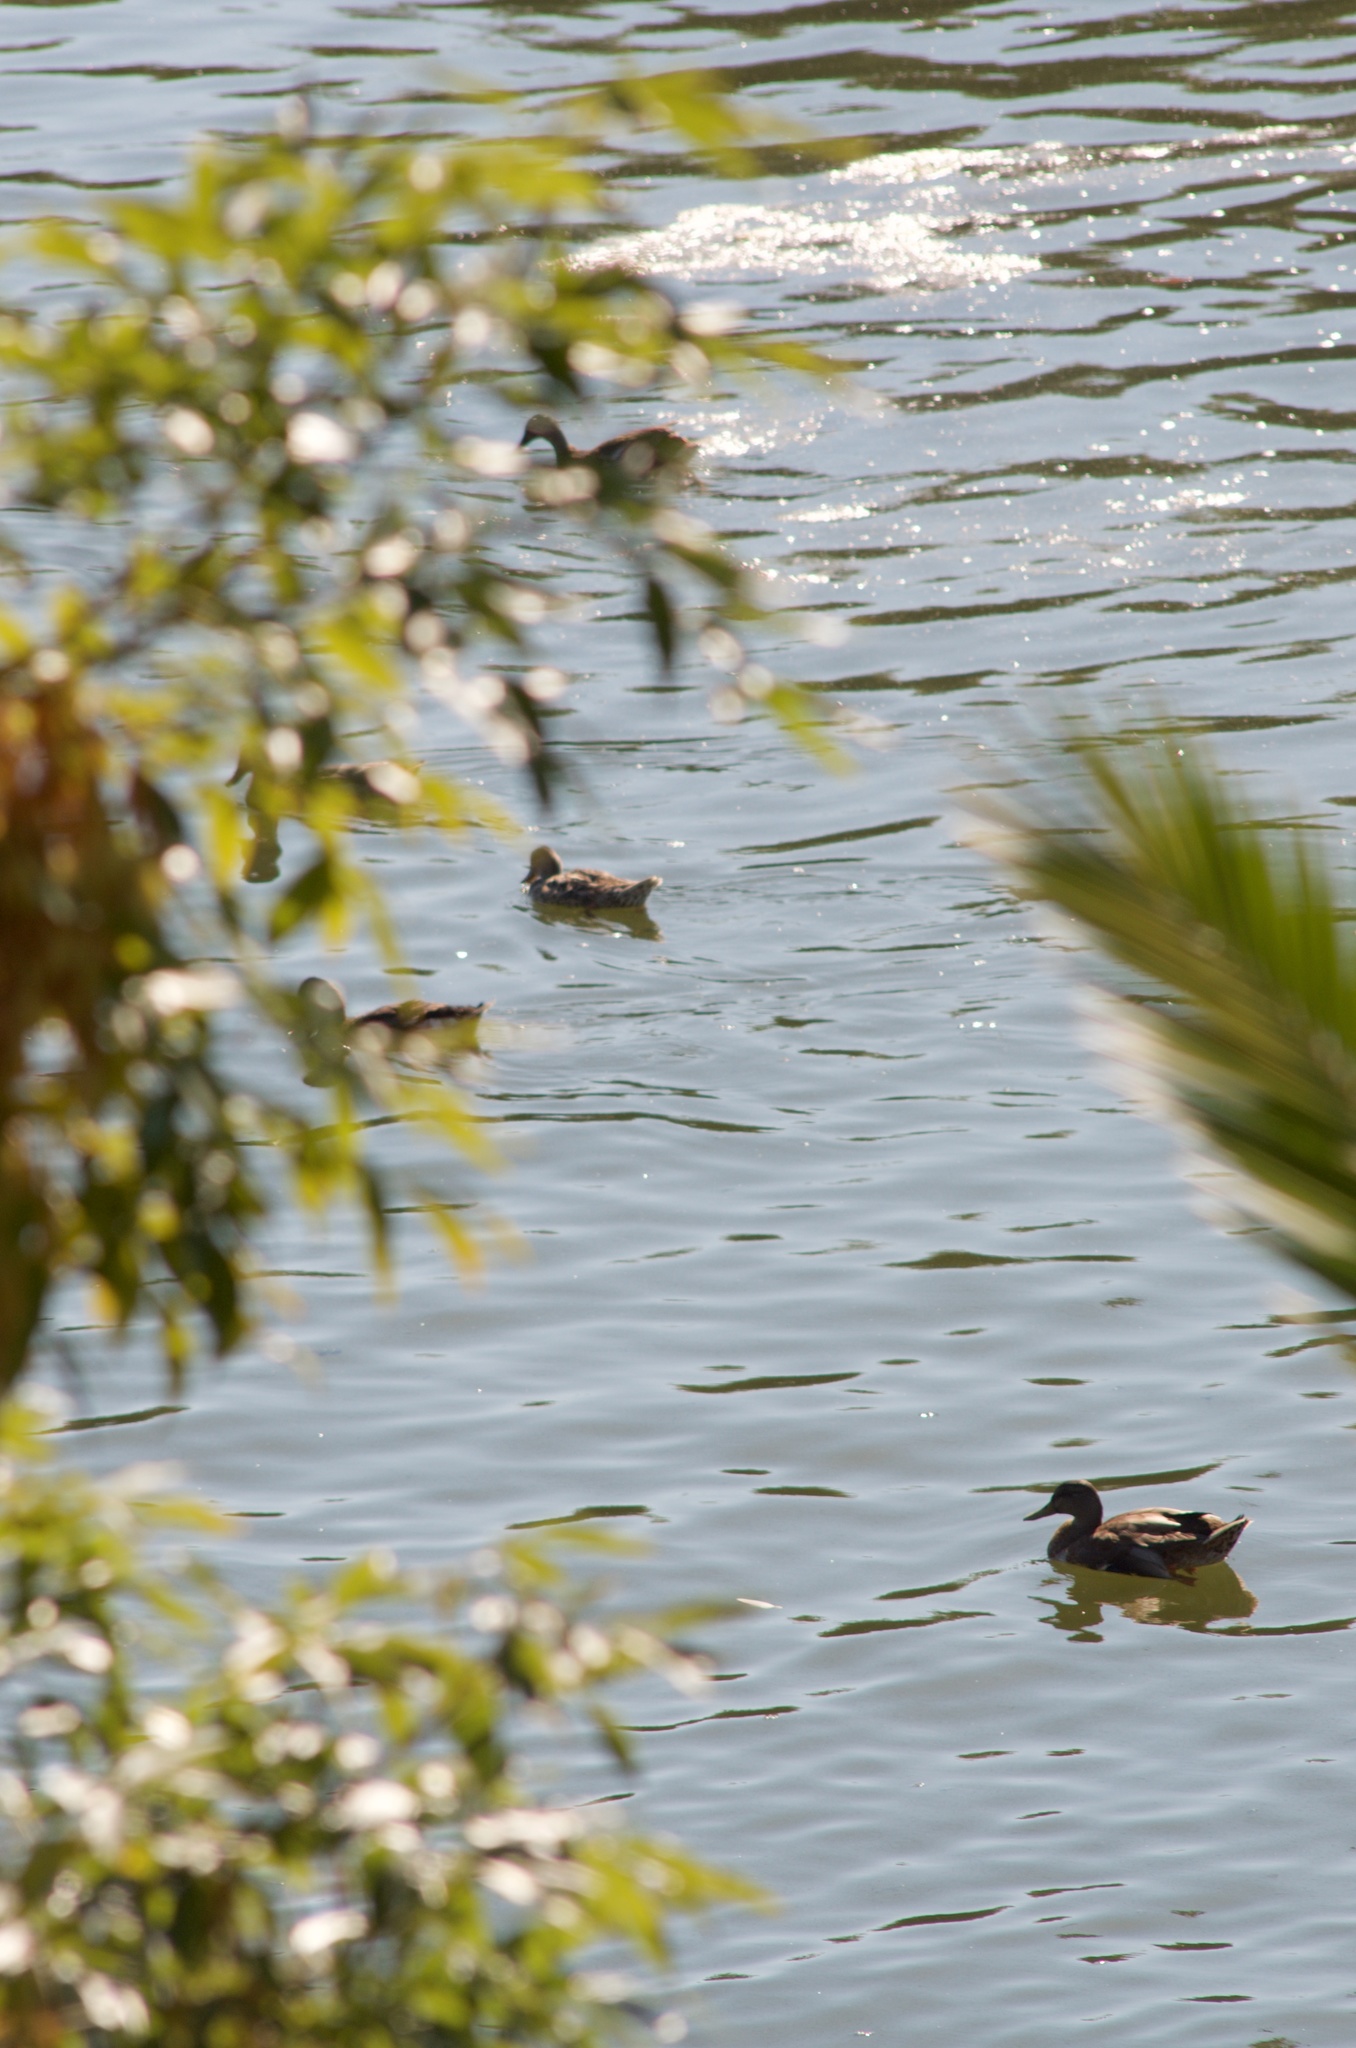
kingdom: Animalia
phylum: Chordata
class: Aves
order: Anseriformes
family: Anatidae
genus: Anas
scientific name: Anas platyrhynchos
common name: Mallard
